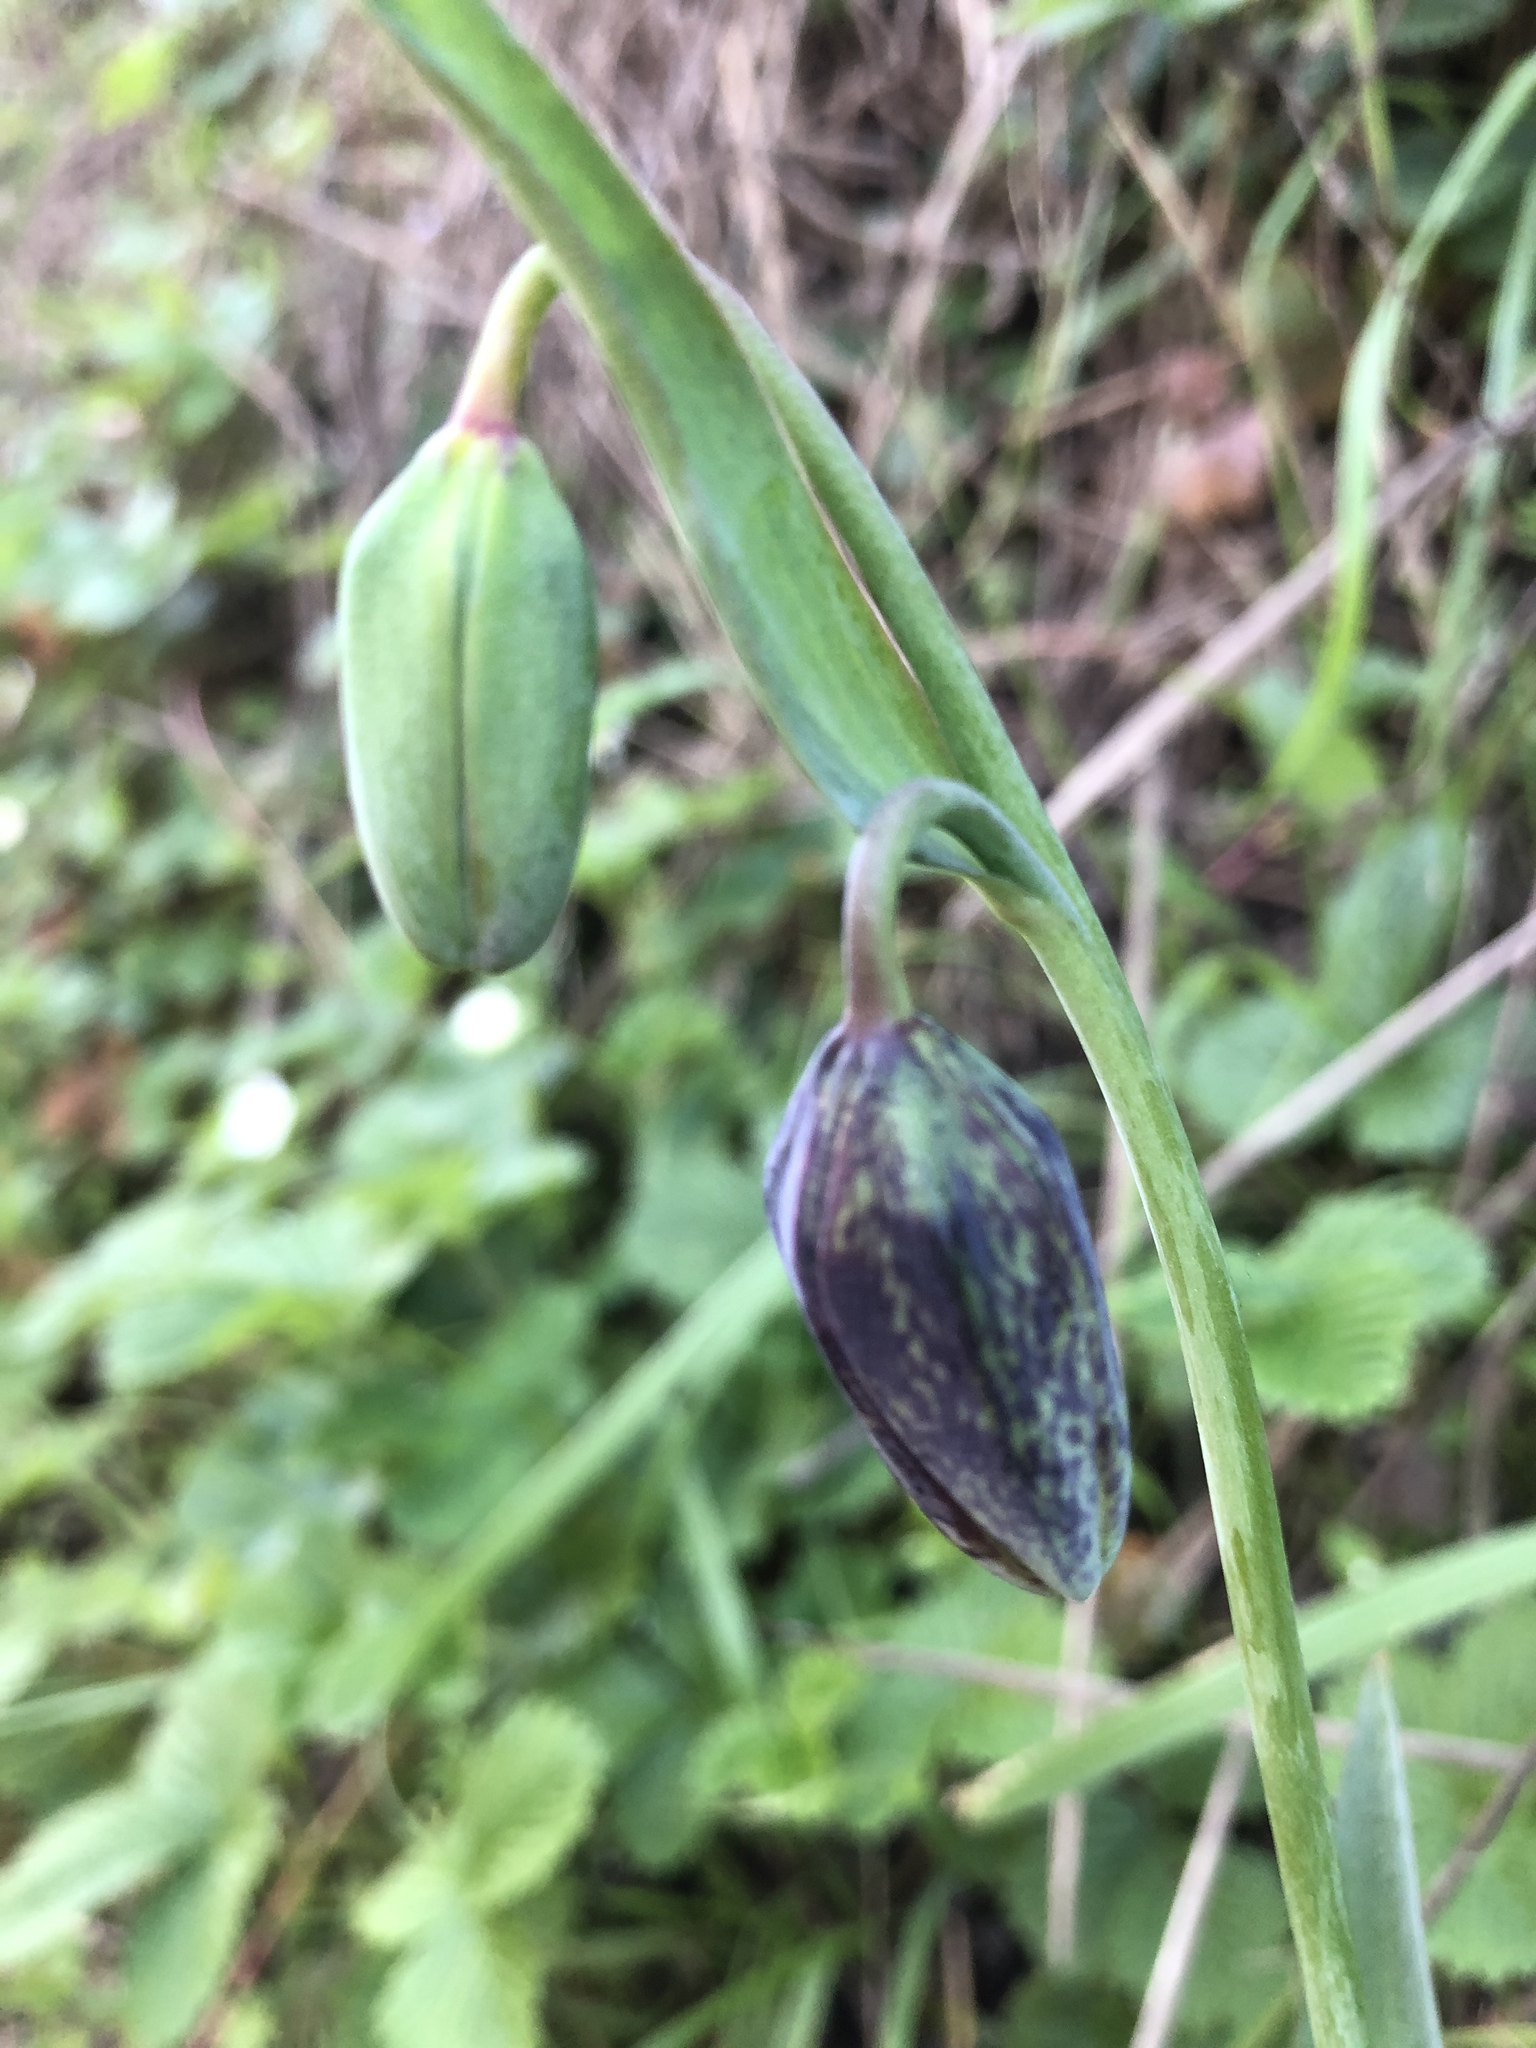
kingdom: Plantae
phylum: Tracheophyta
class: Liliopsida
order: Liliales
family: Liliaceae
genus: Fritillaria
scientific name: Fritillaria affinis
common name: Ojai fritillary
